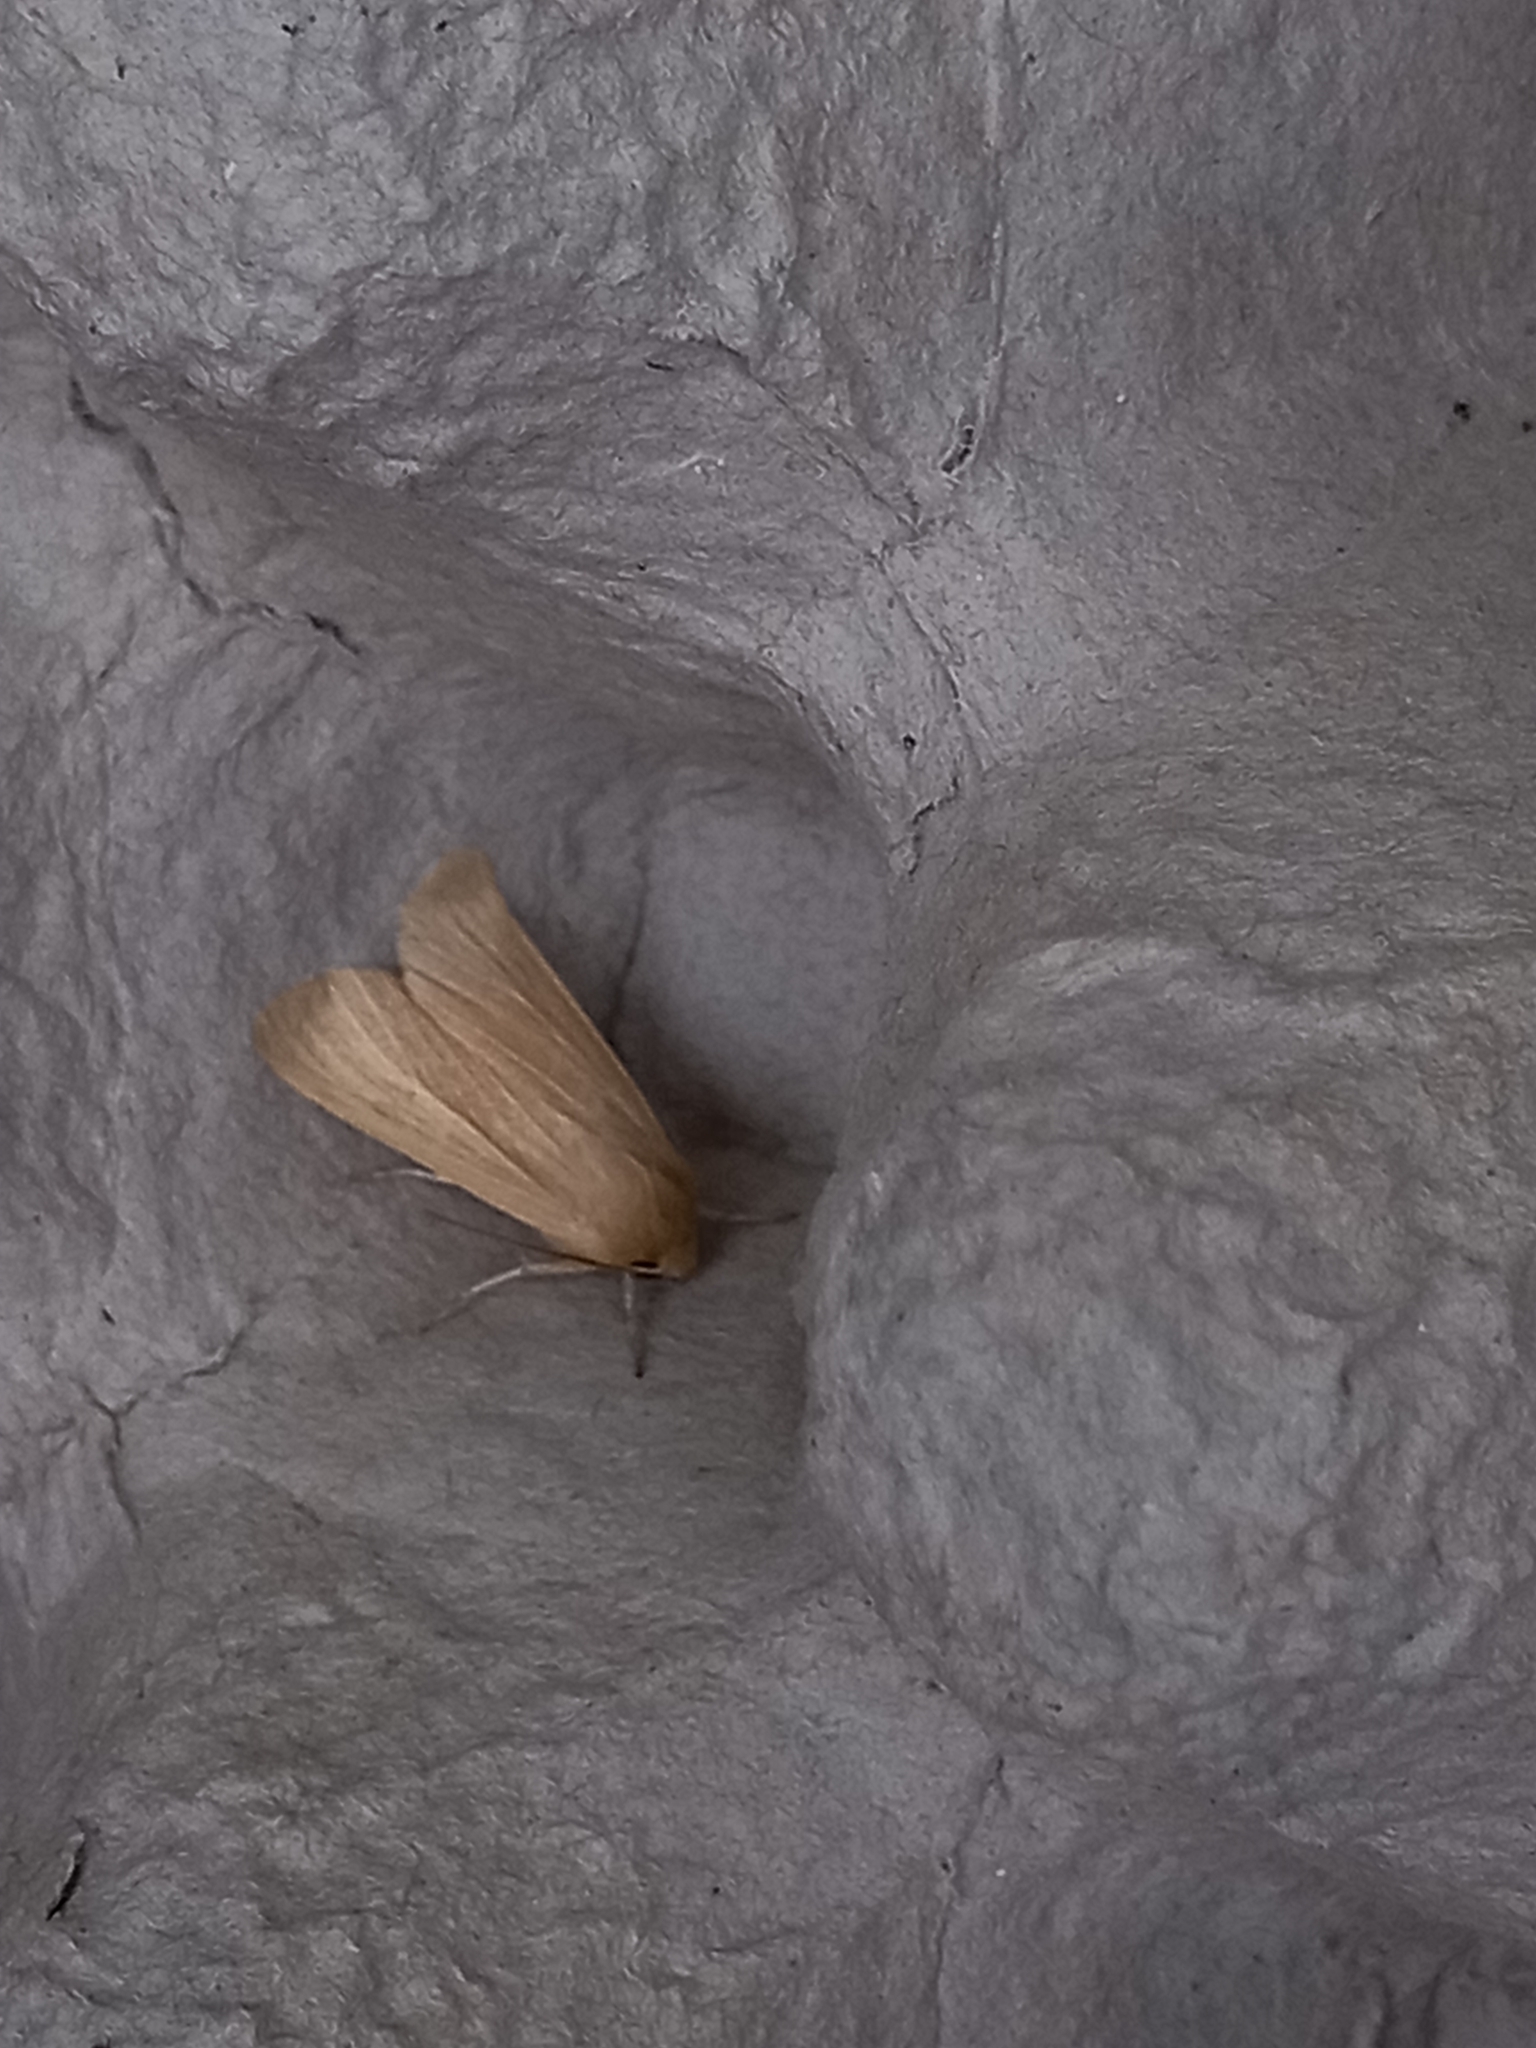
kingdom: Animalia
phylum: Arthropoda
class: Insecta
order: Lepidoptera
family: Noctuidae
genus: Mythimna
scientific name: Mythimna pallens
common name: Common wainscot
